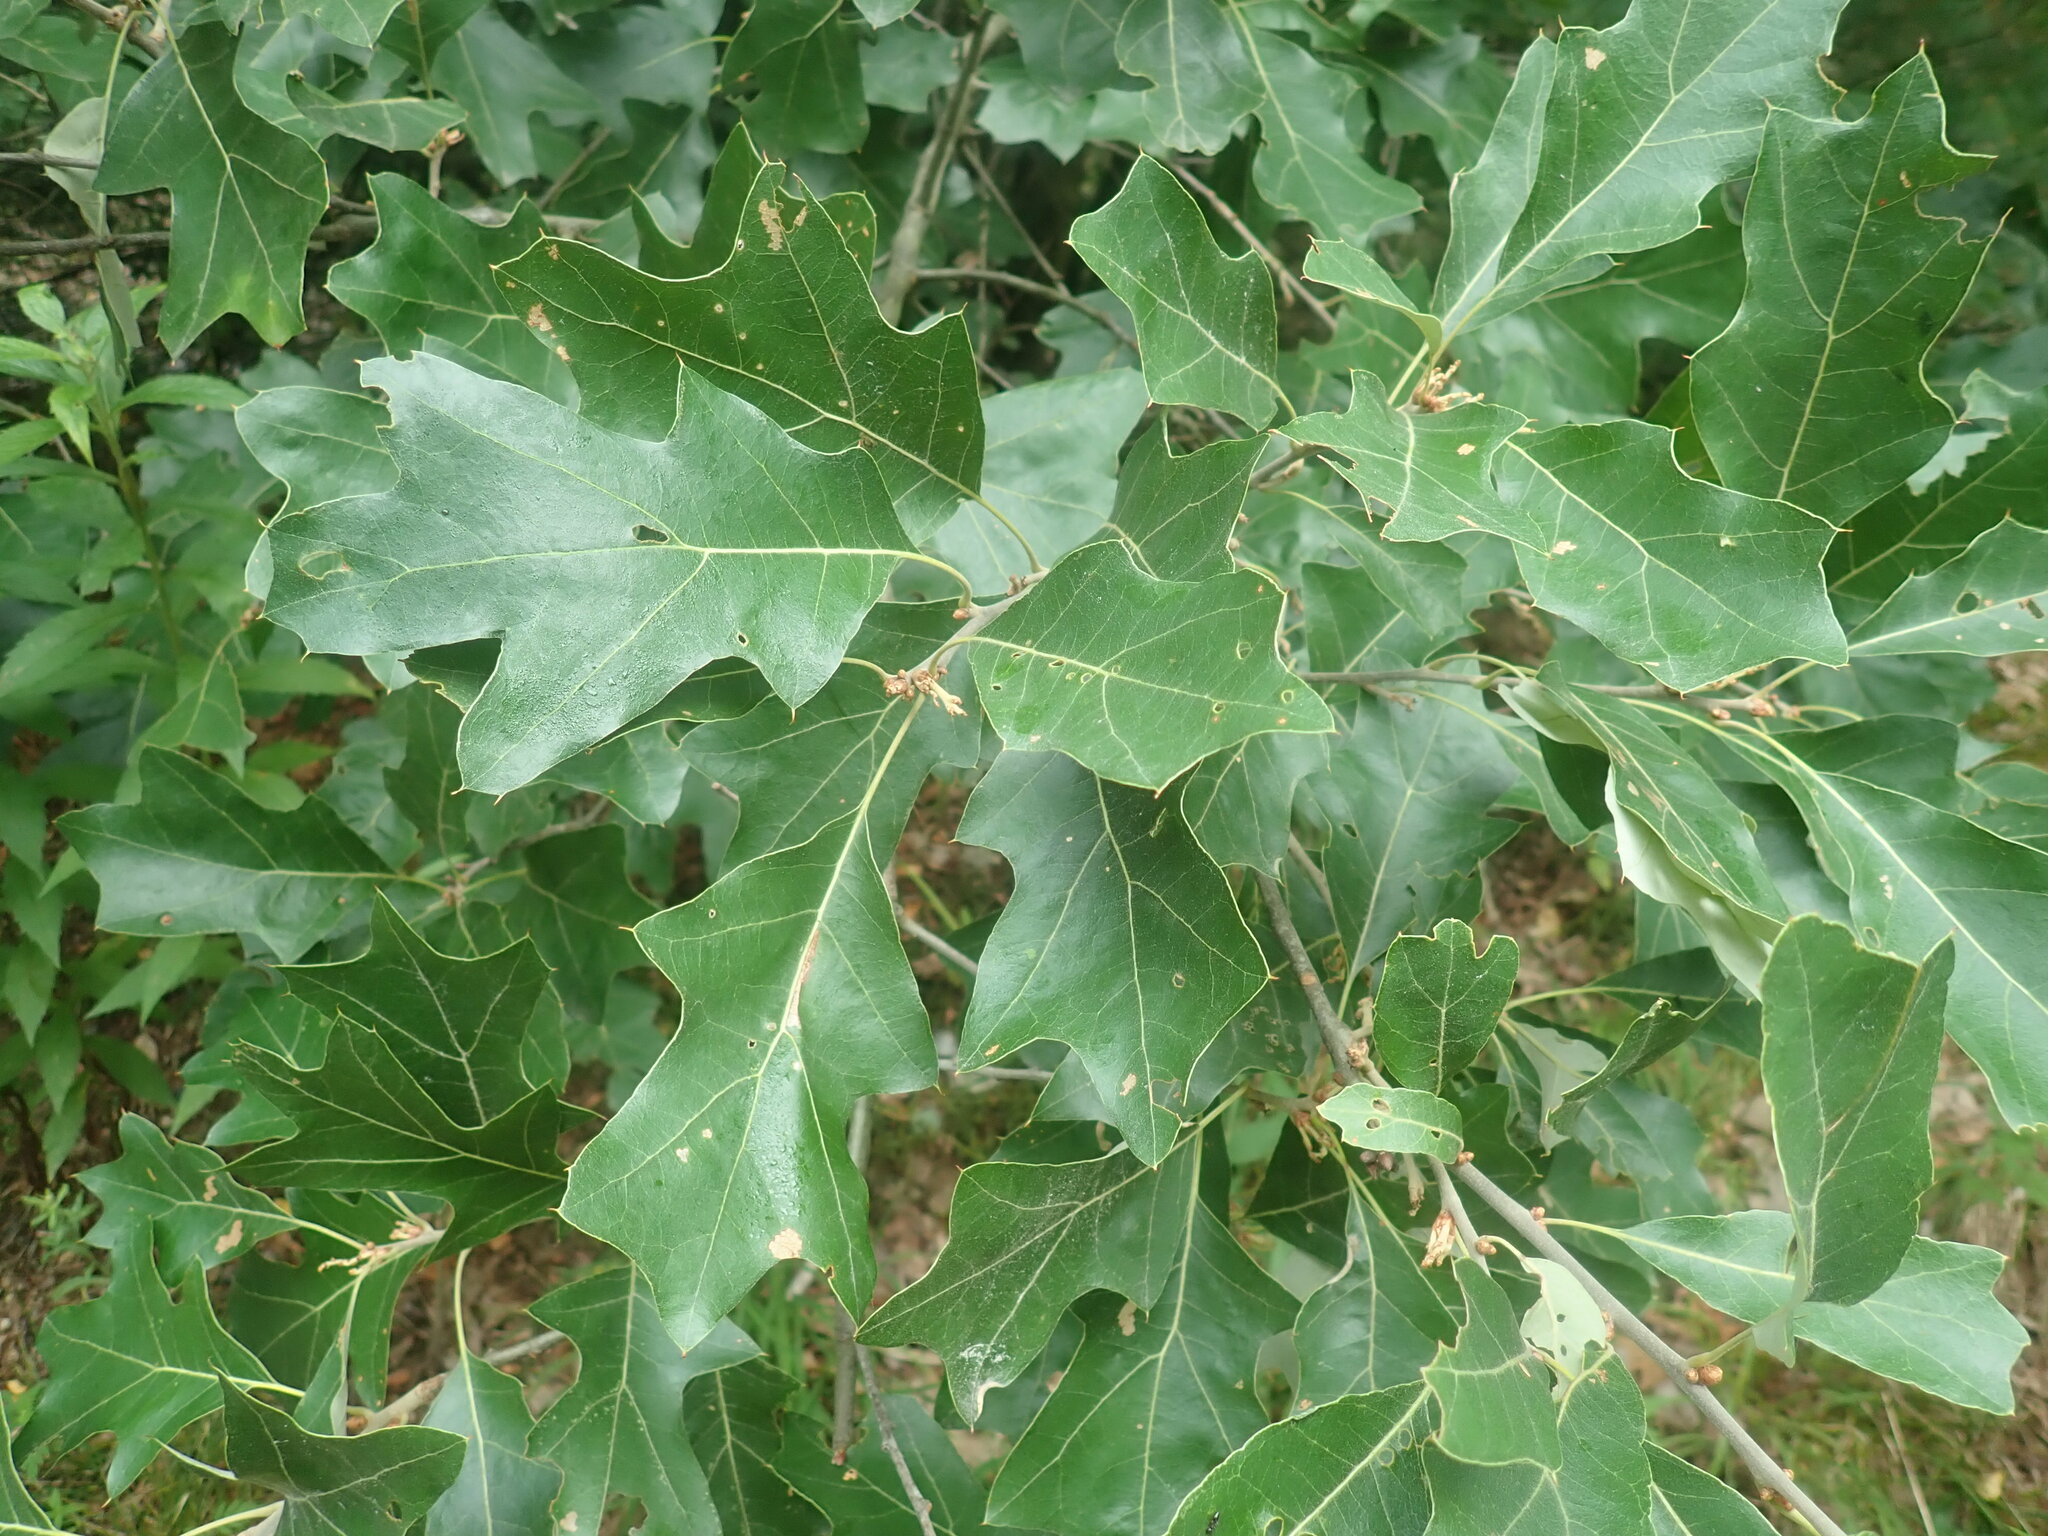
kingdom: Plantae
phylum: Tracheophyta
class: Magnoliopsida
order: Fagales
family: Fagaceae
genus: Quercus
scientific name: Quercus ilicifolia
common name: Bear oak
